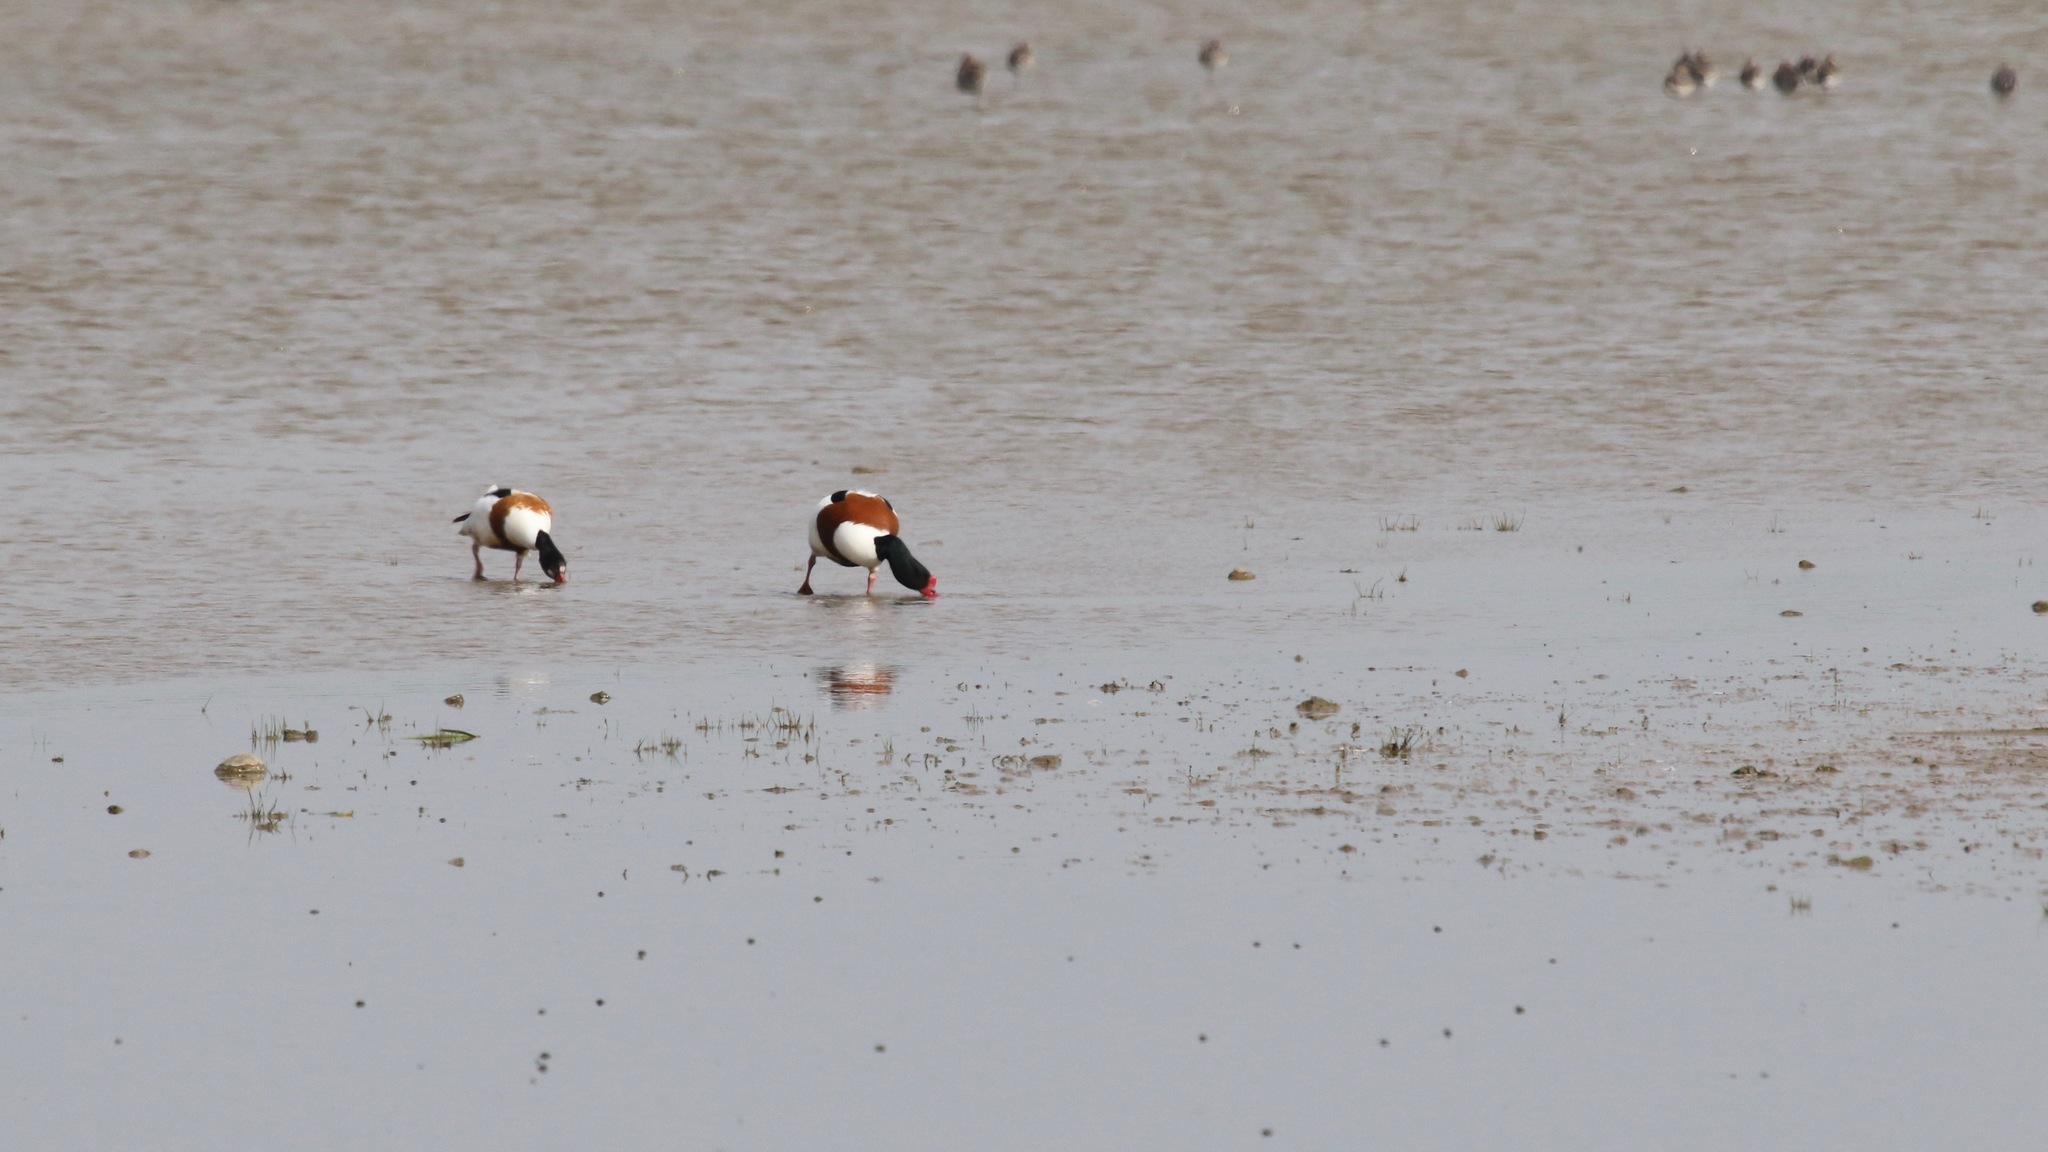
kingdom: Animalia
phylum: Chordata
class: Aves
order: Anseriformes
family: Anatidae
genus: Tadorna
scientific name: Tadorna tadorna
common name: Common shelduck
